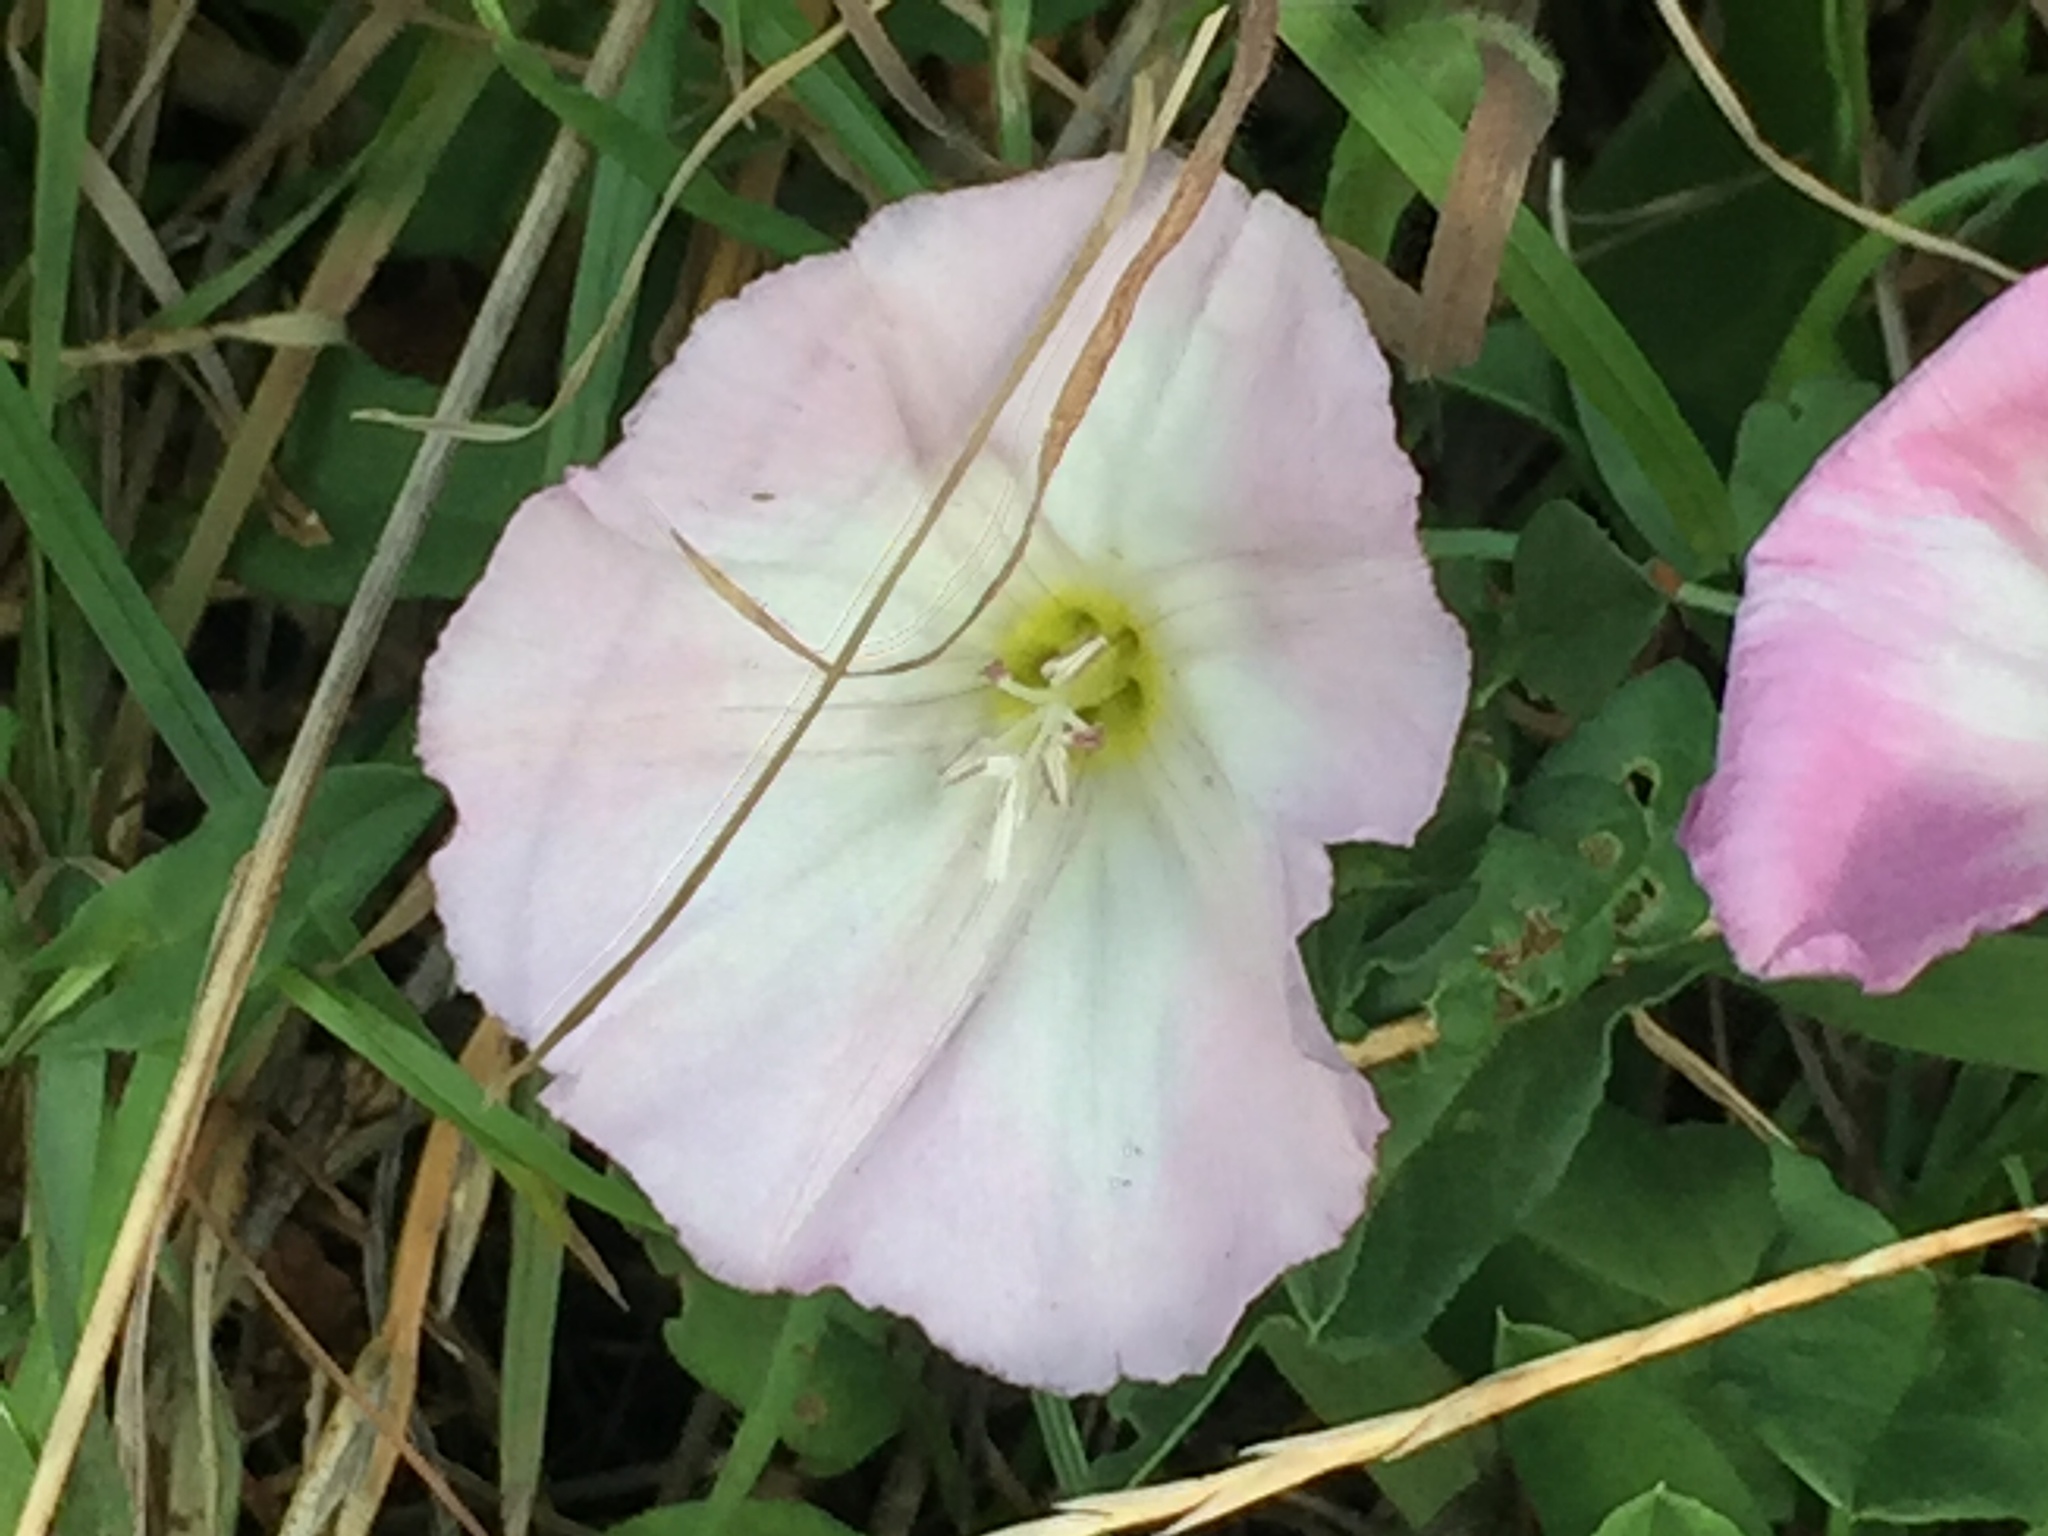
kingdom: Plantae
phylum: Tracheophyta
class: Magnoliopsida
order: Solanales
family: Convolvulaceae
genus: Convolvulus
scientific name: Convolvulus arvensis
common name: Field bindweed
